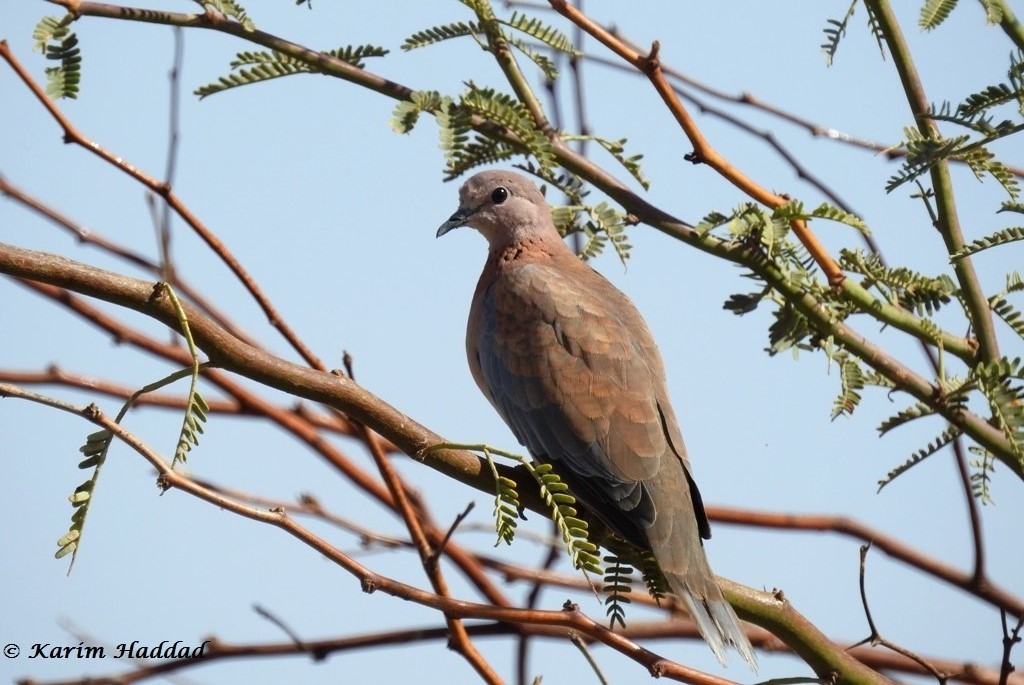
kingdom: Animalia
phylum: Chordata
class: Aves
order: Columbiformes
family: Columbidae
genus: Spilopelia
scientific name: Spilopelia senegalensis
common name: Laughing dove
